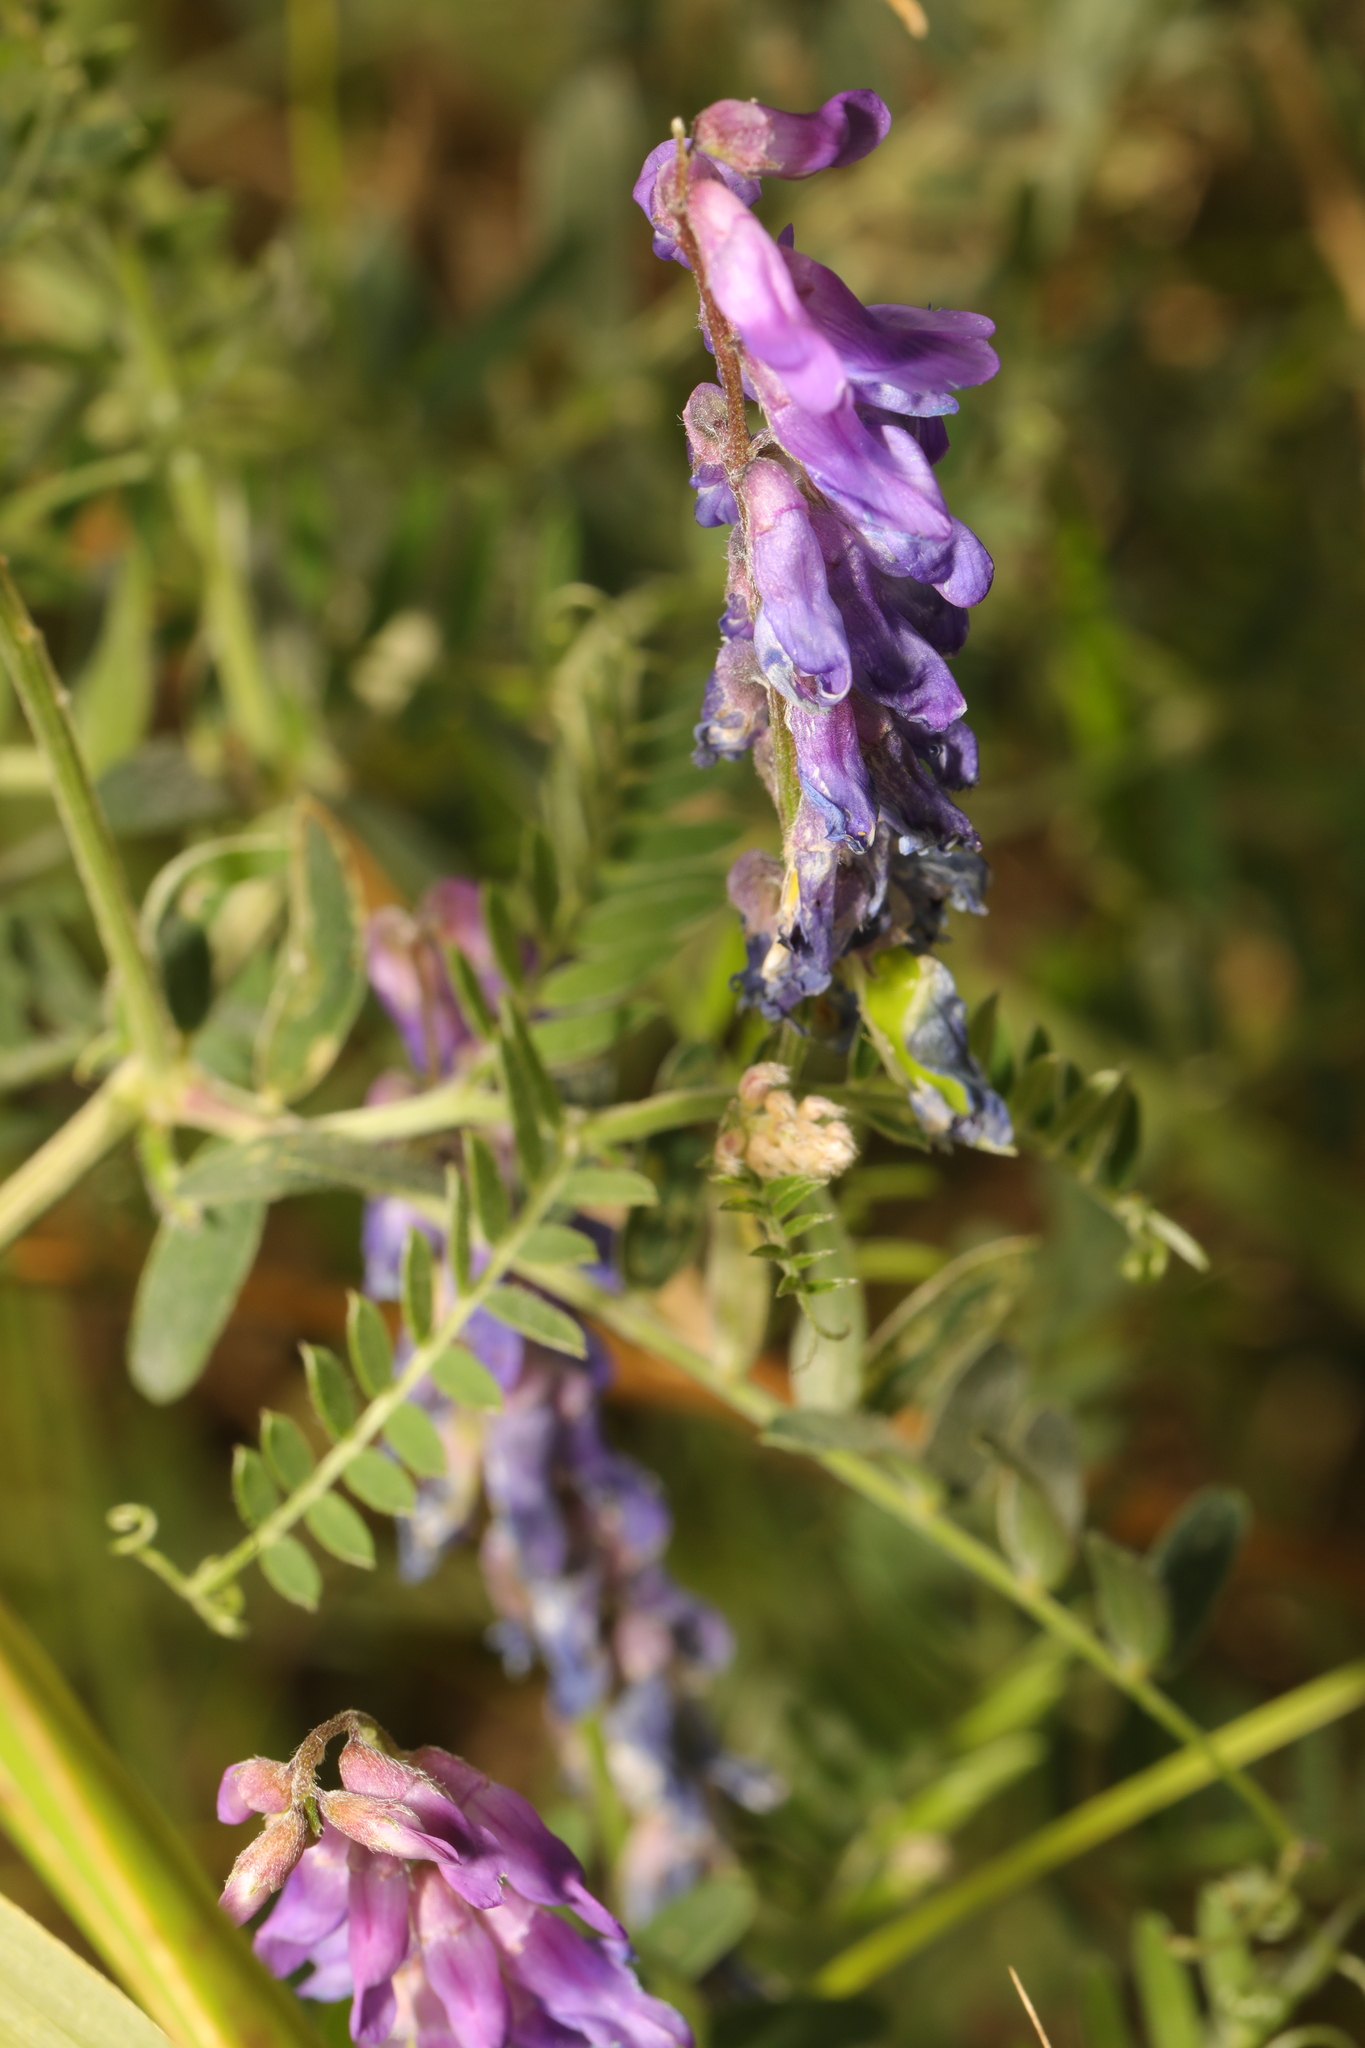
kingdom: Plantae
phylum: Tracheophyta
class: Magnoliopsida
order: Fabales
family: Fabaceae
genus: Vicia
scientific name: Vicia cracca
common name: Bird vetch
